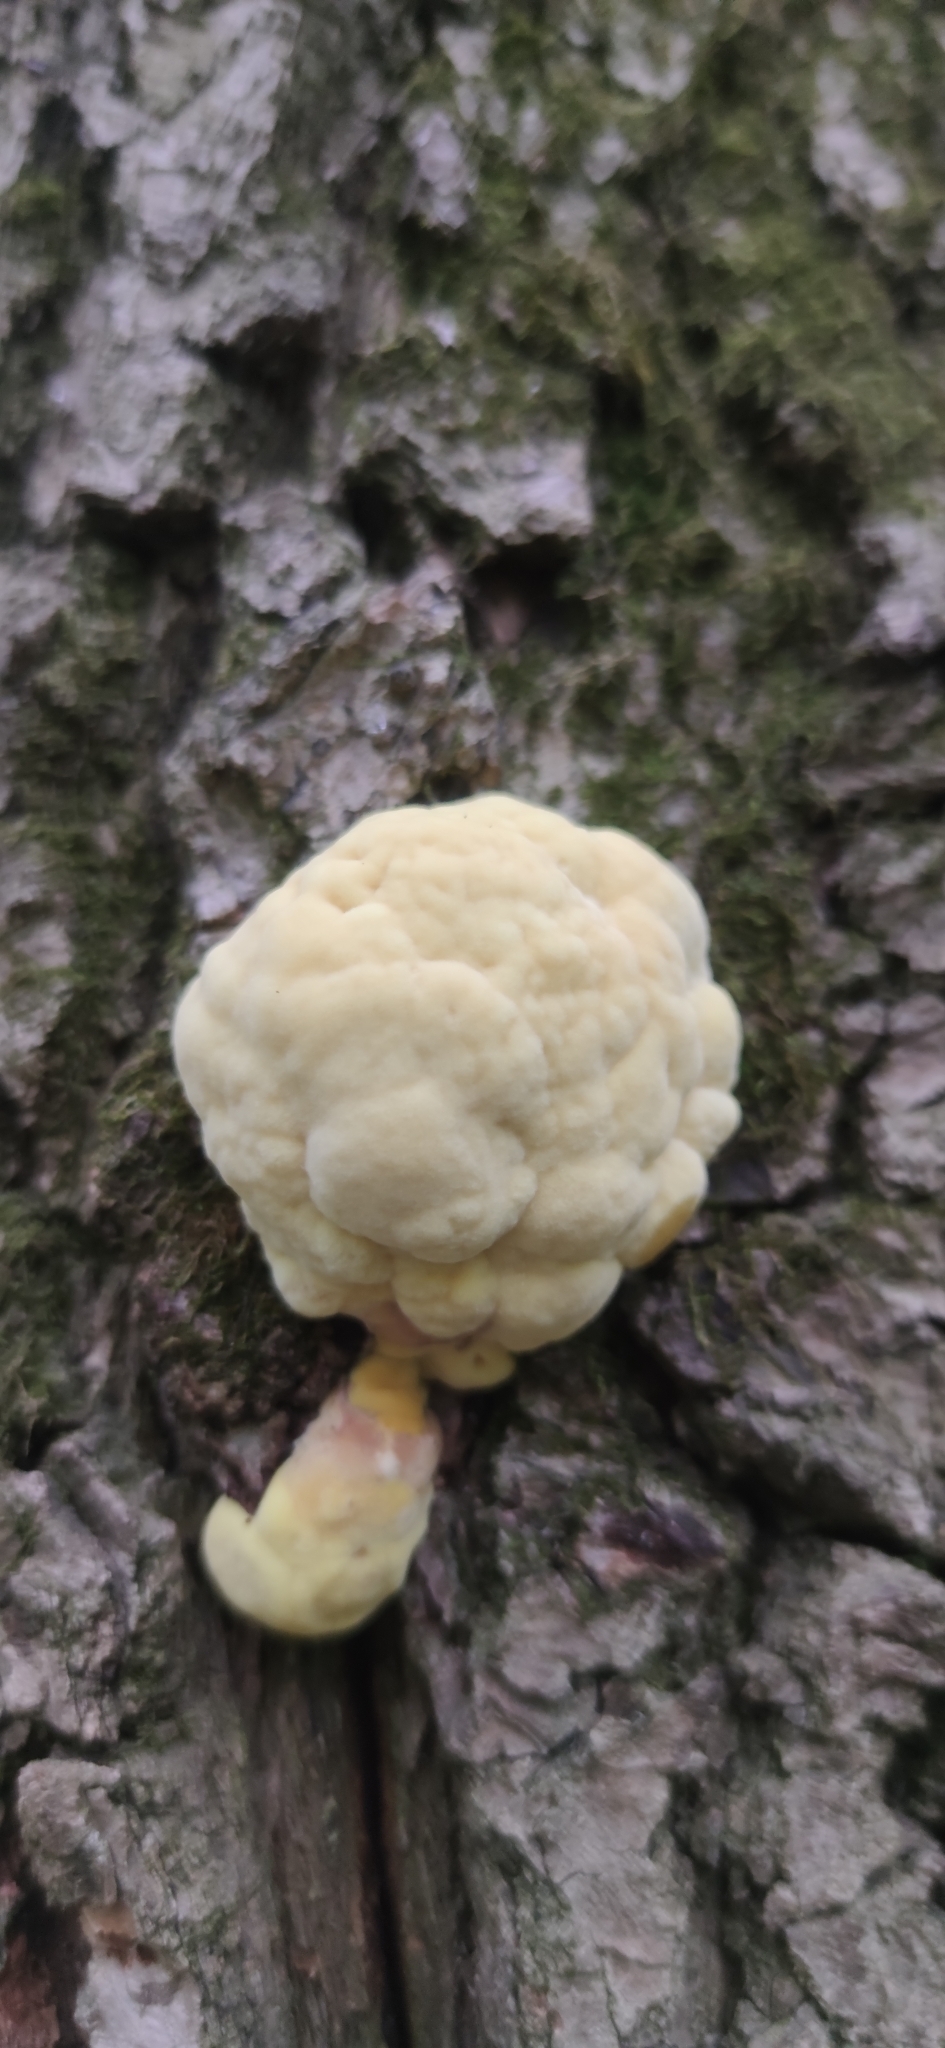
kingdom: Fungi
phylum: Basidiomycota
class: Agaricomycetes
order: Polyporales
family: Laetiporaceae
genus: Laetiporus
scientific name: Laetiporus sulphureus
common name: Chicken of the woods
